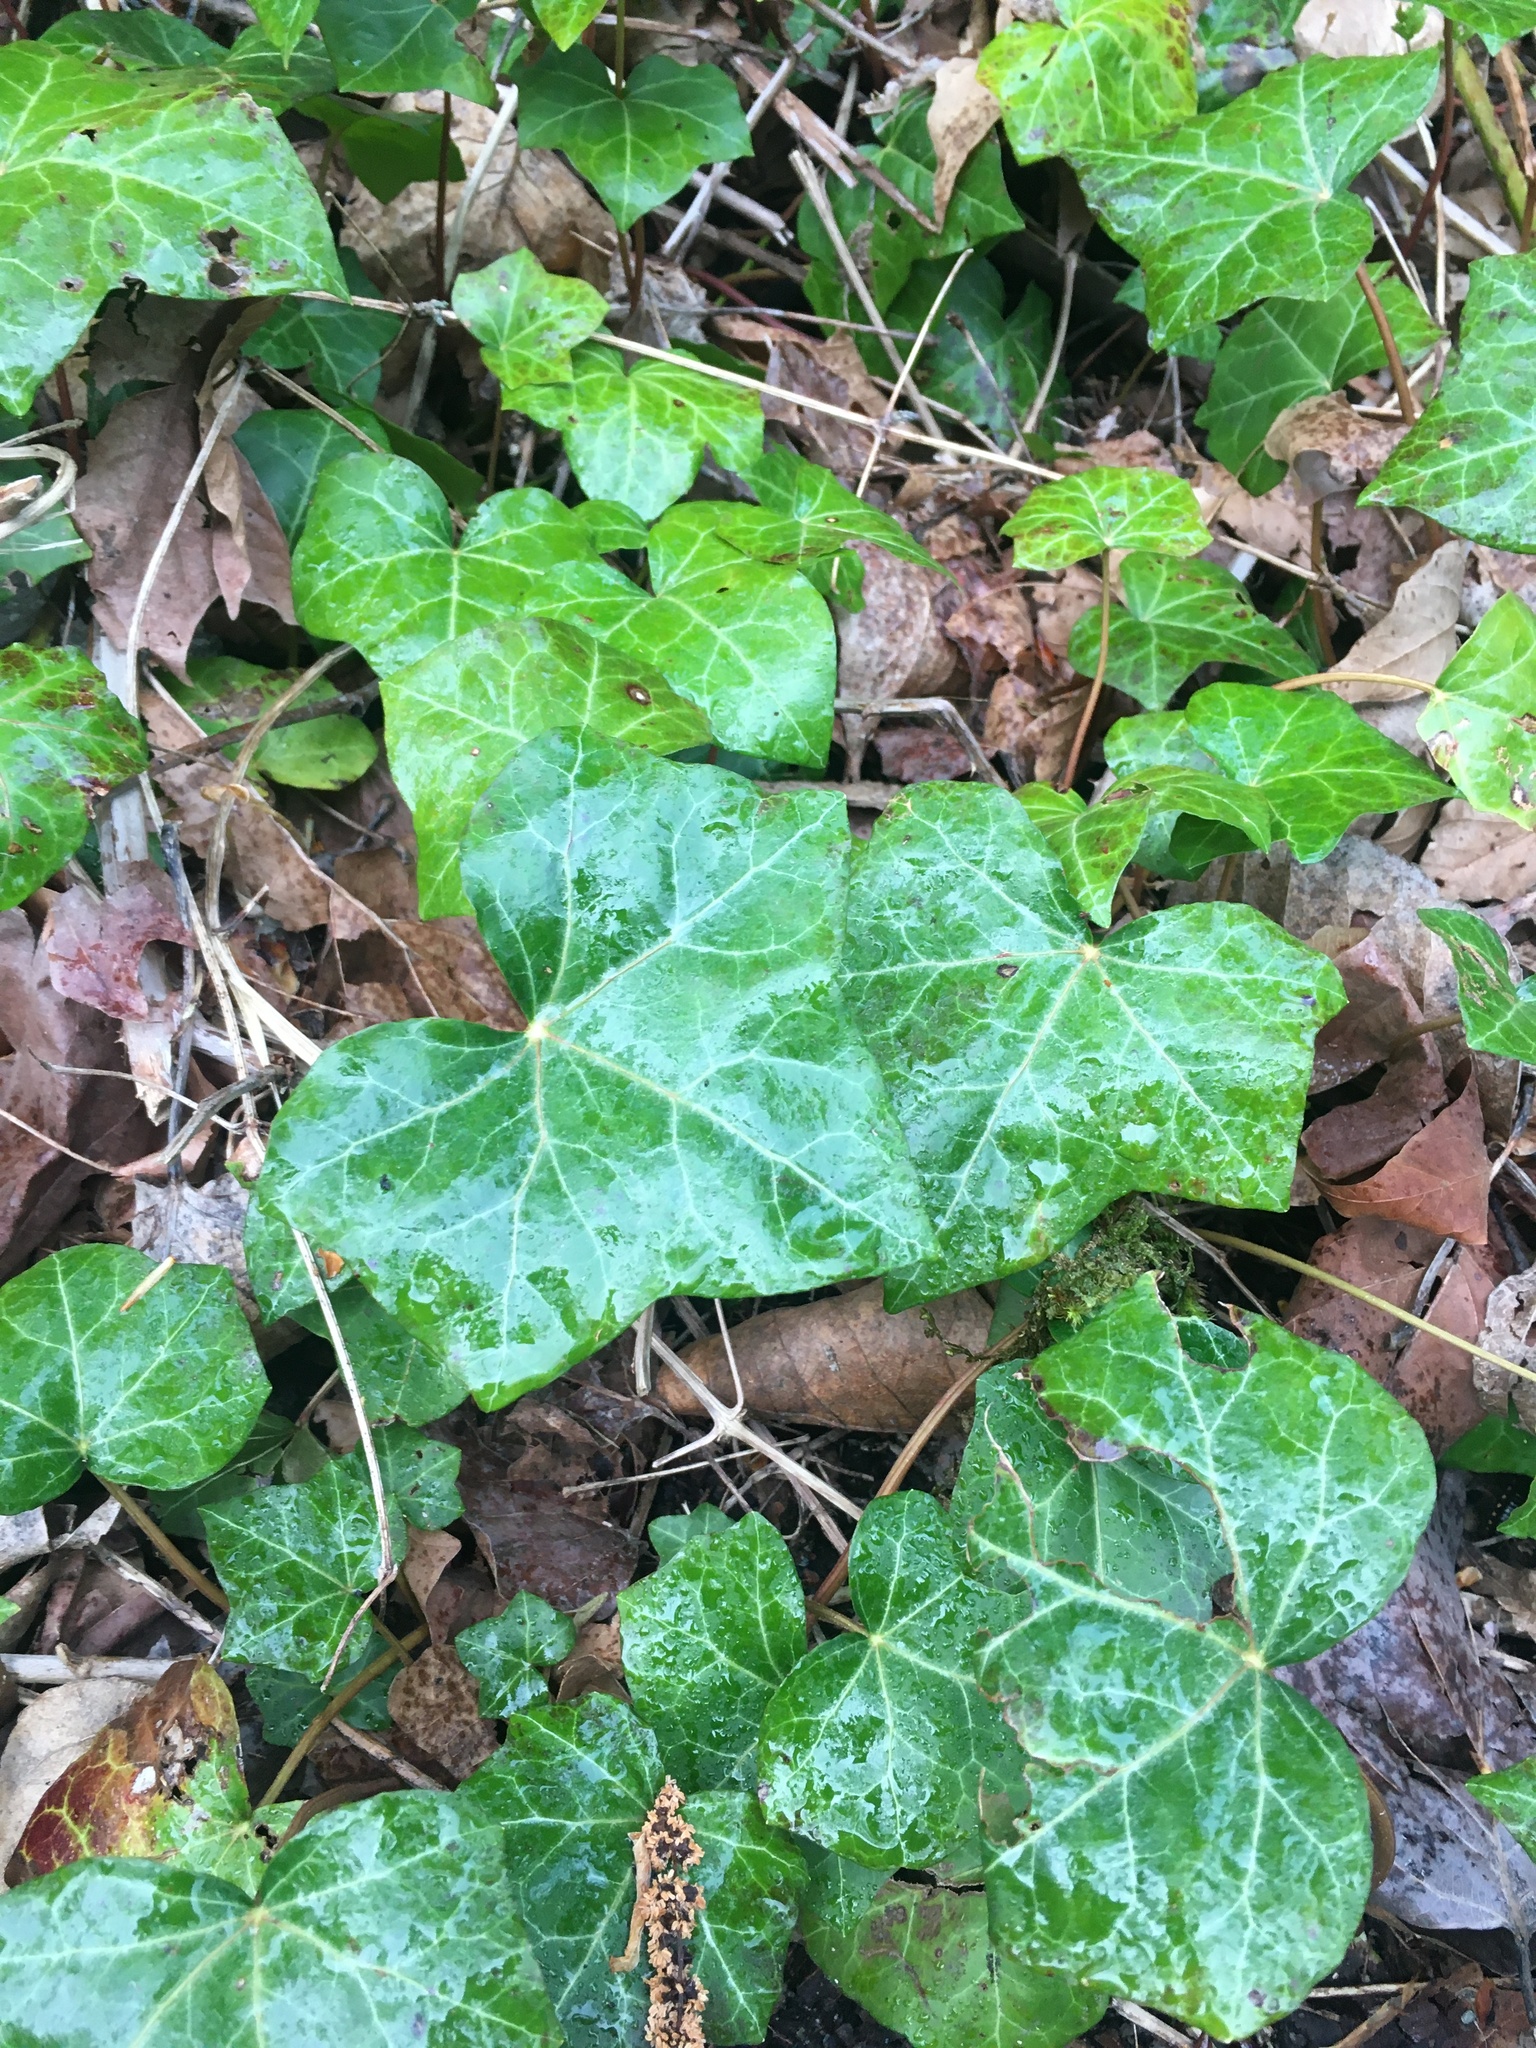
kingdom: Plantae
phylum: Tracheophyta
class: Magnoliopsida
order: Apiales
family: Araliaceae
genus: Hedera
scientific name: Hedera helix
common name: Ivy
